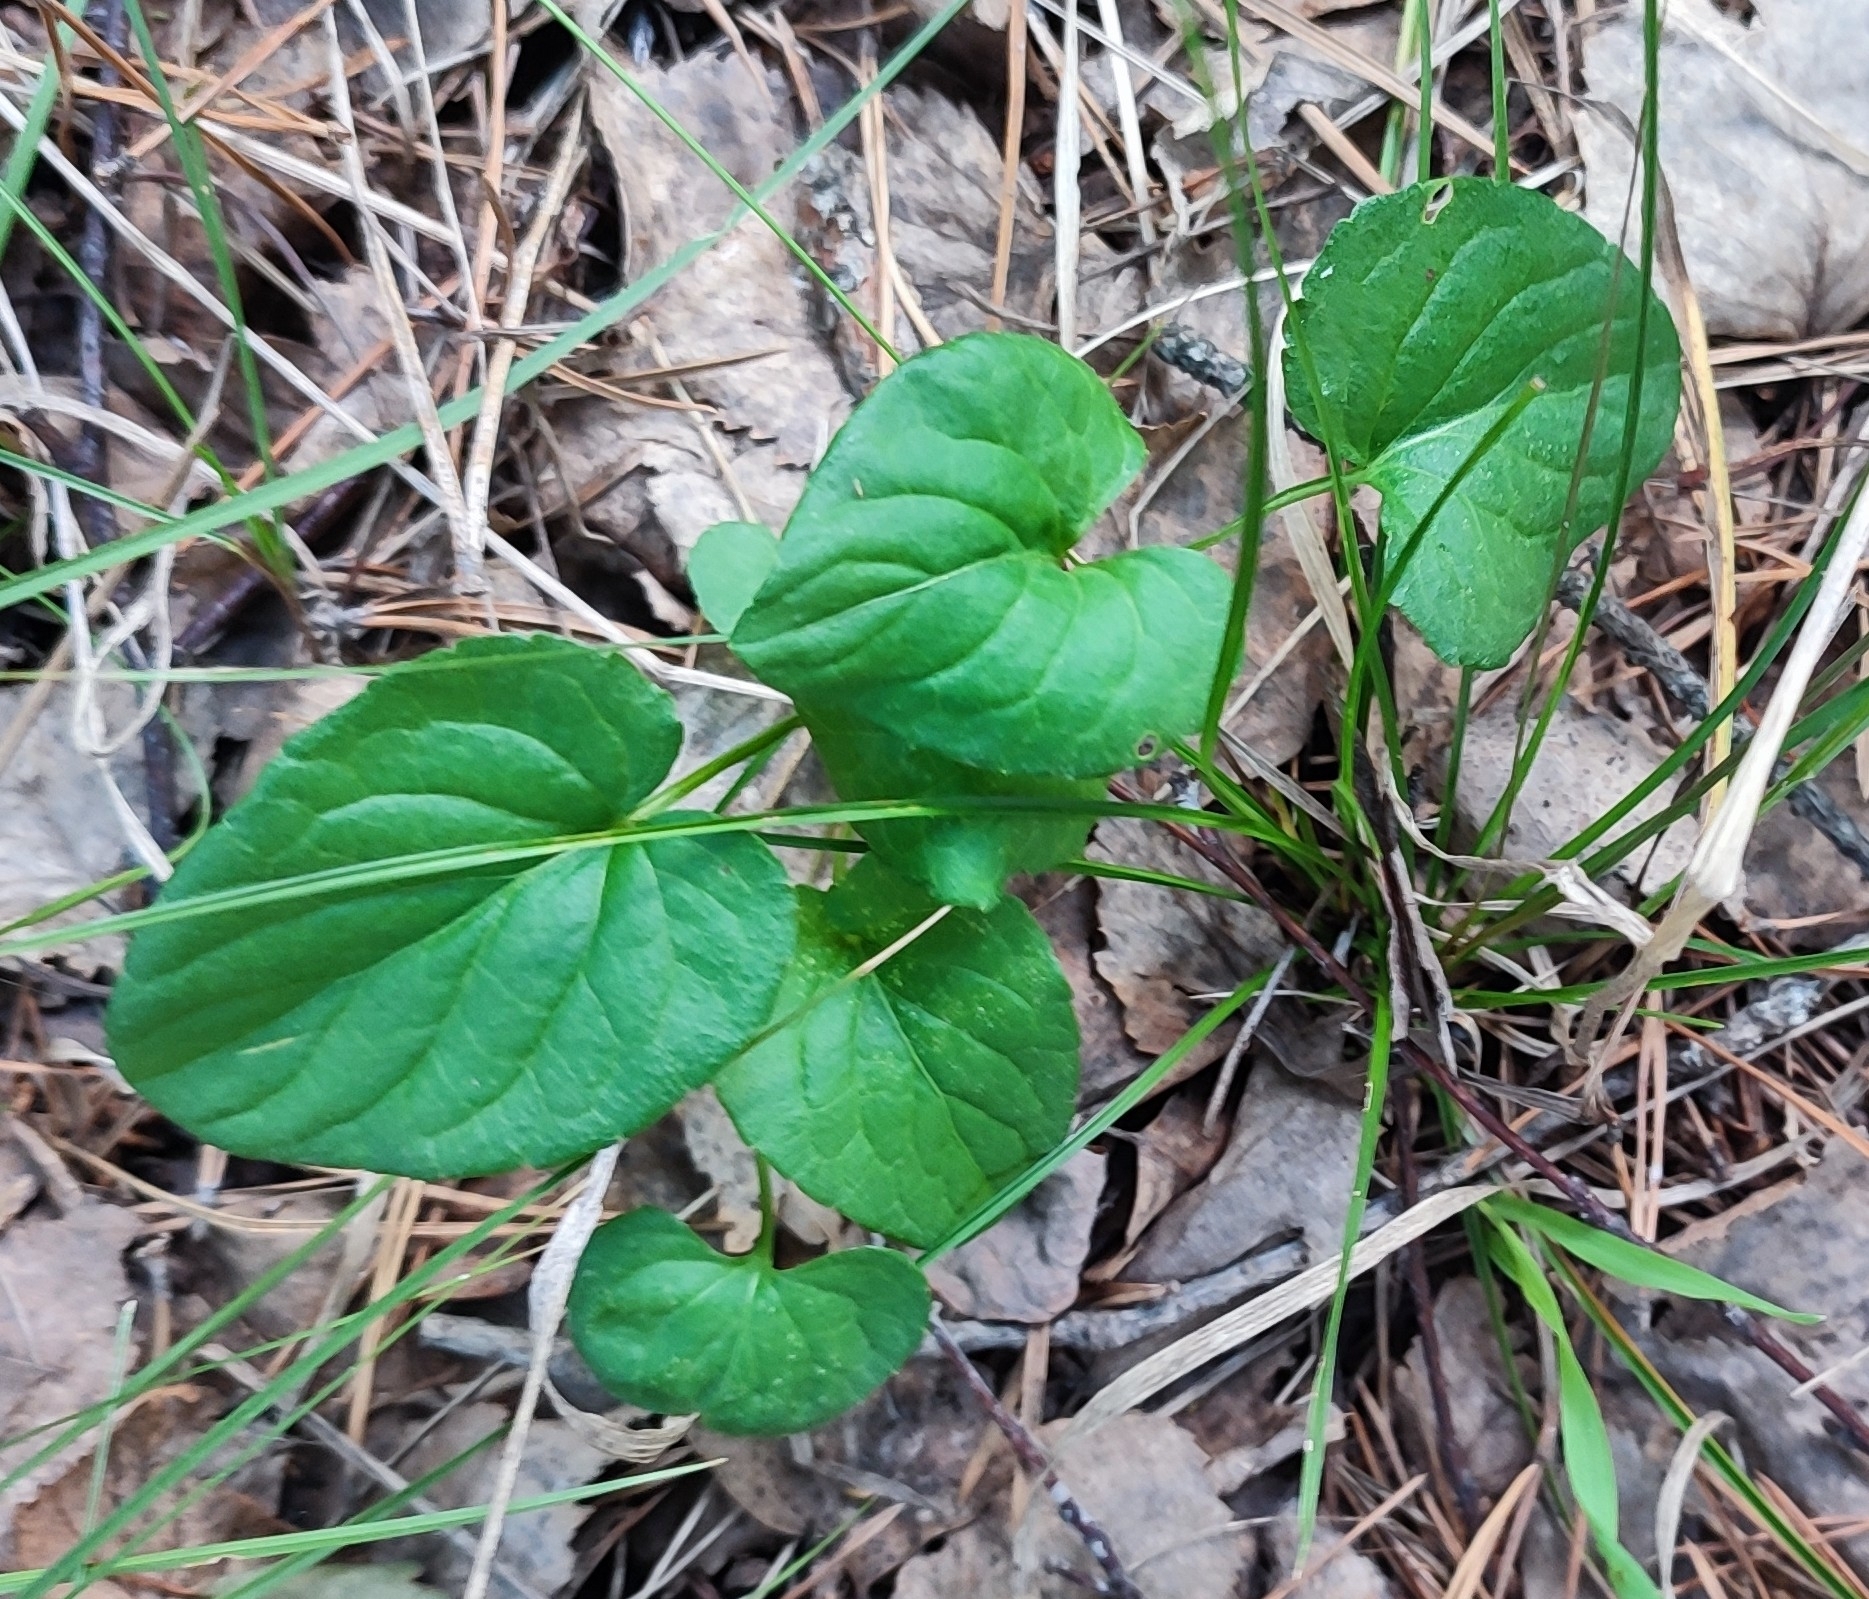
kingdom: Plantae
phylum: Tracheophyta
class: Magnoliopsida
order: Malpighiales
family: Violaceae
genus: Viola
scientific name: Viola
